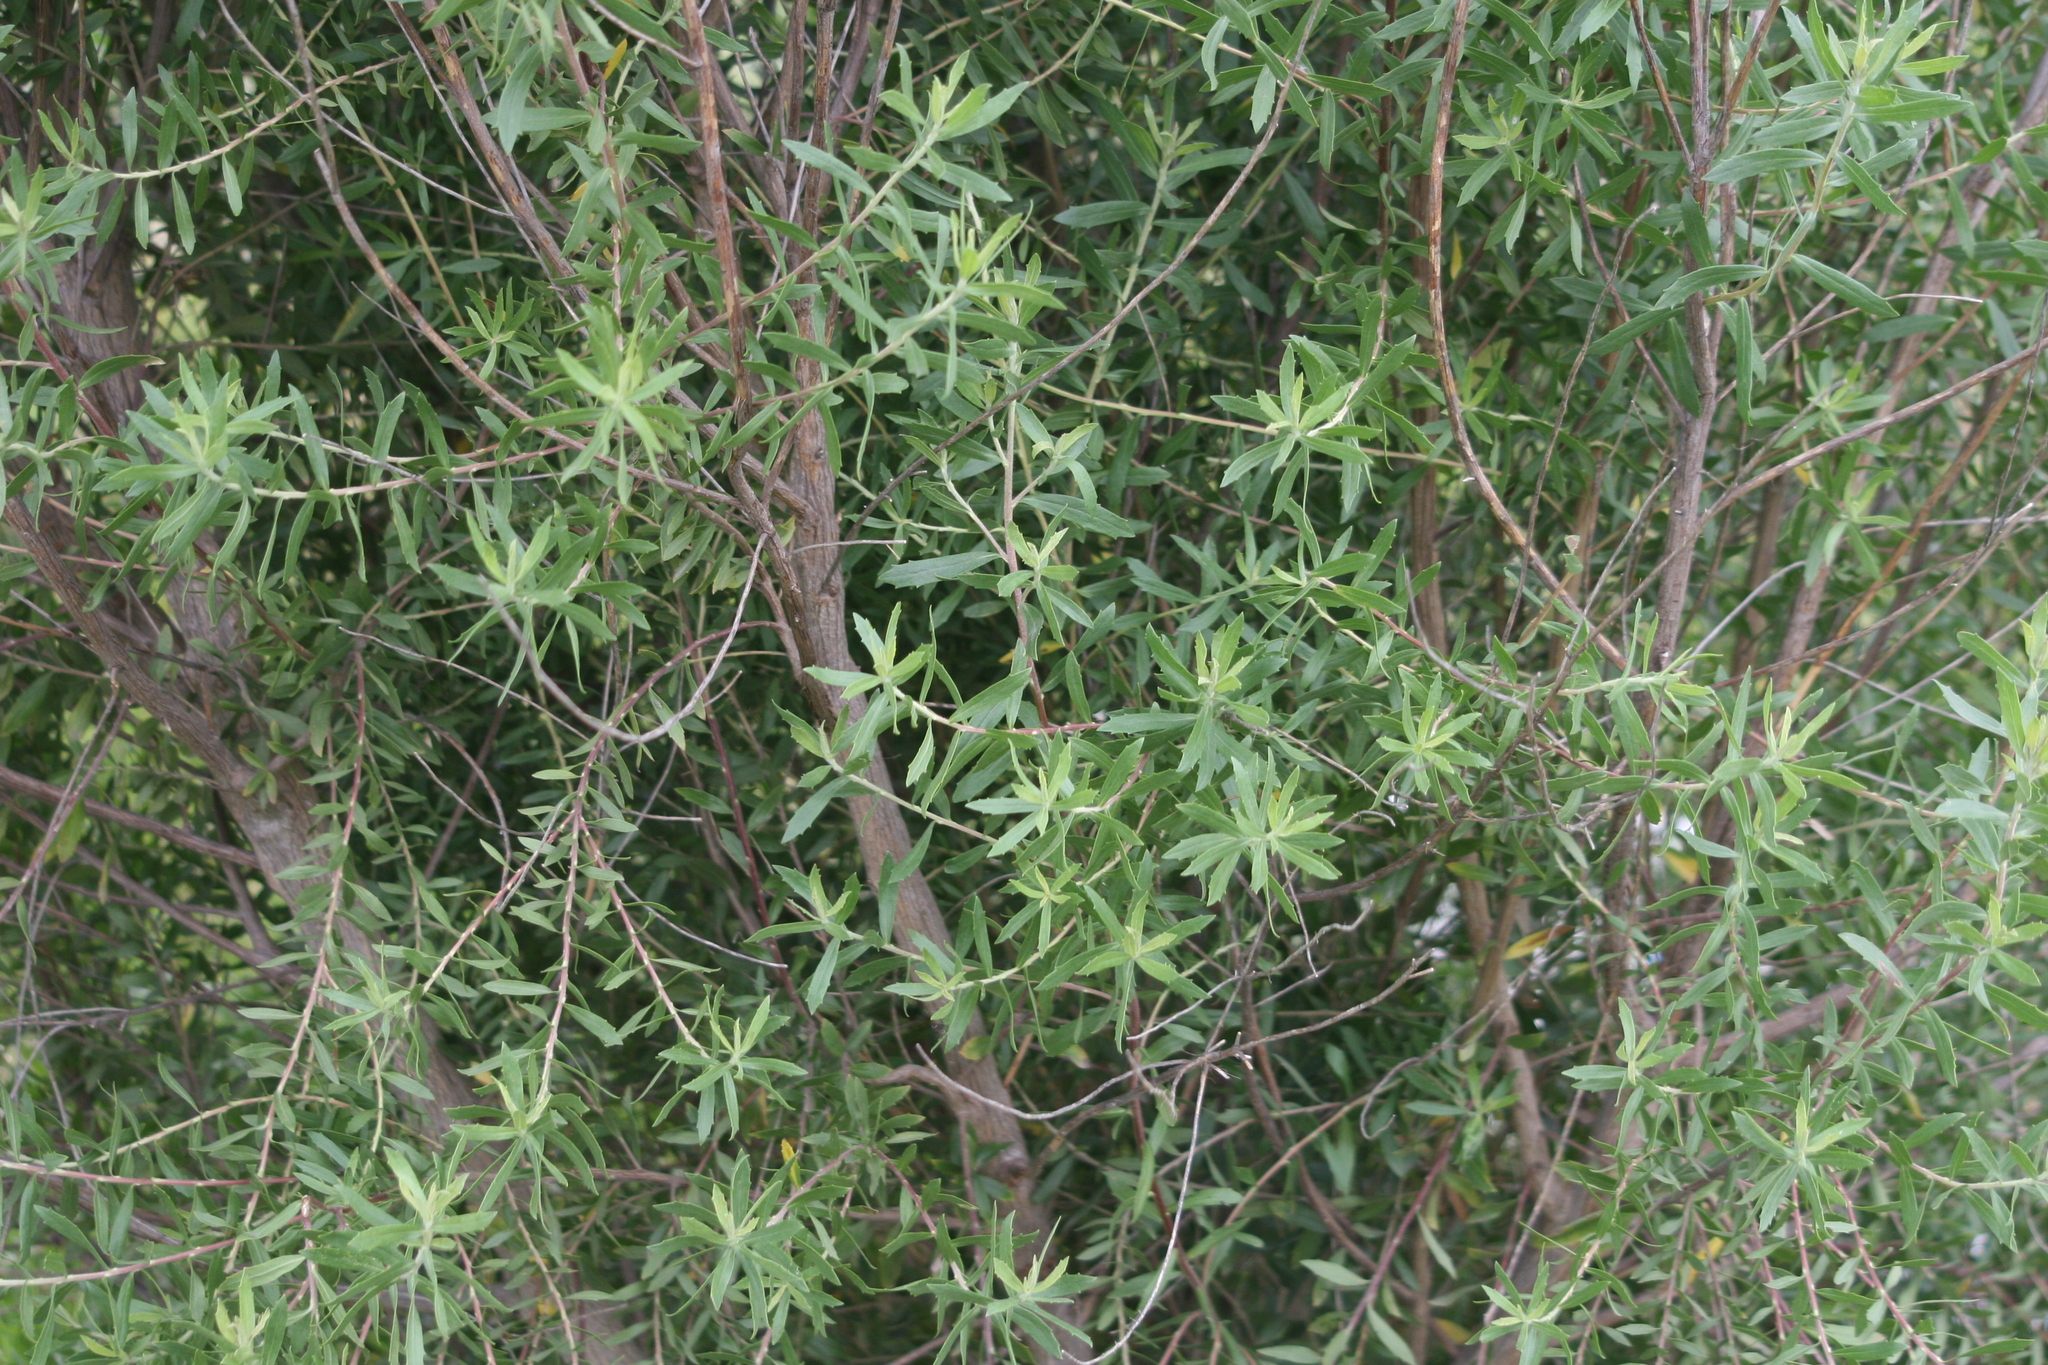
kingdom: Plantae
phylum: Tracheophyta
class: Magnoliopsida
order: Asterales
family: Asteraceae
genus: Baccharis
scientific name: Baccharis dracunculifolia
